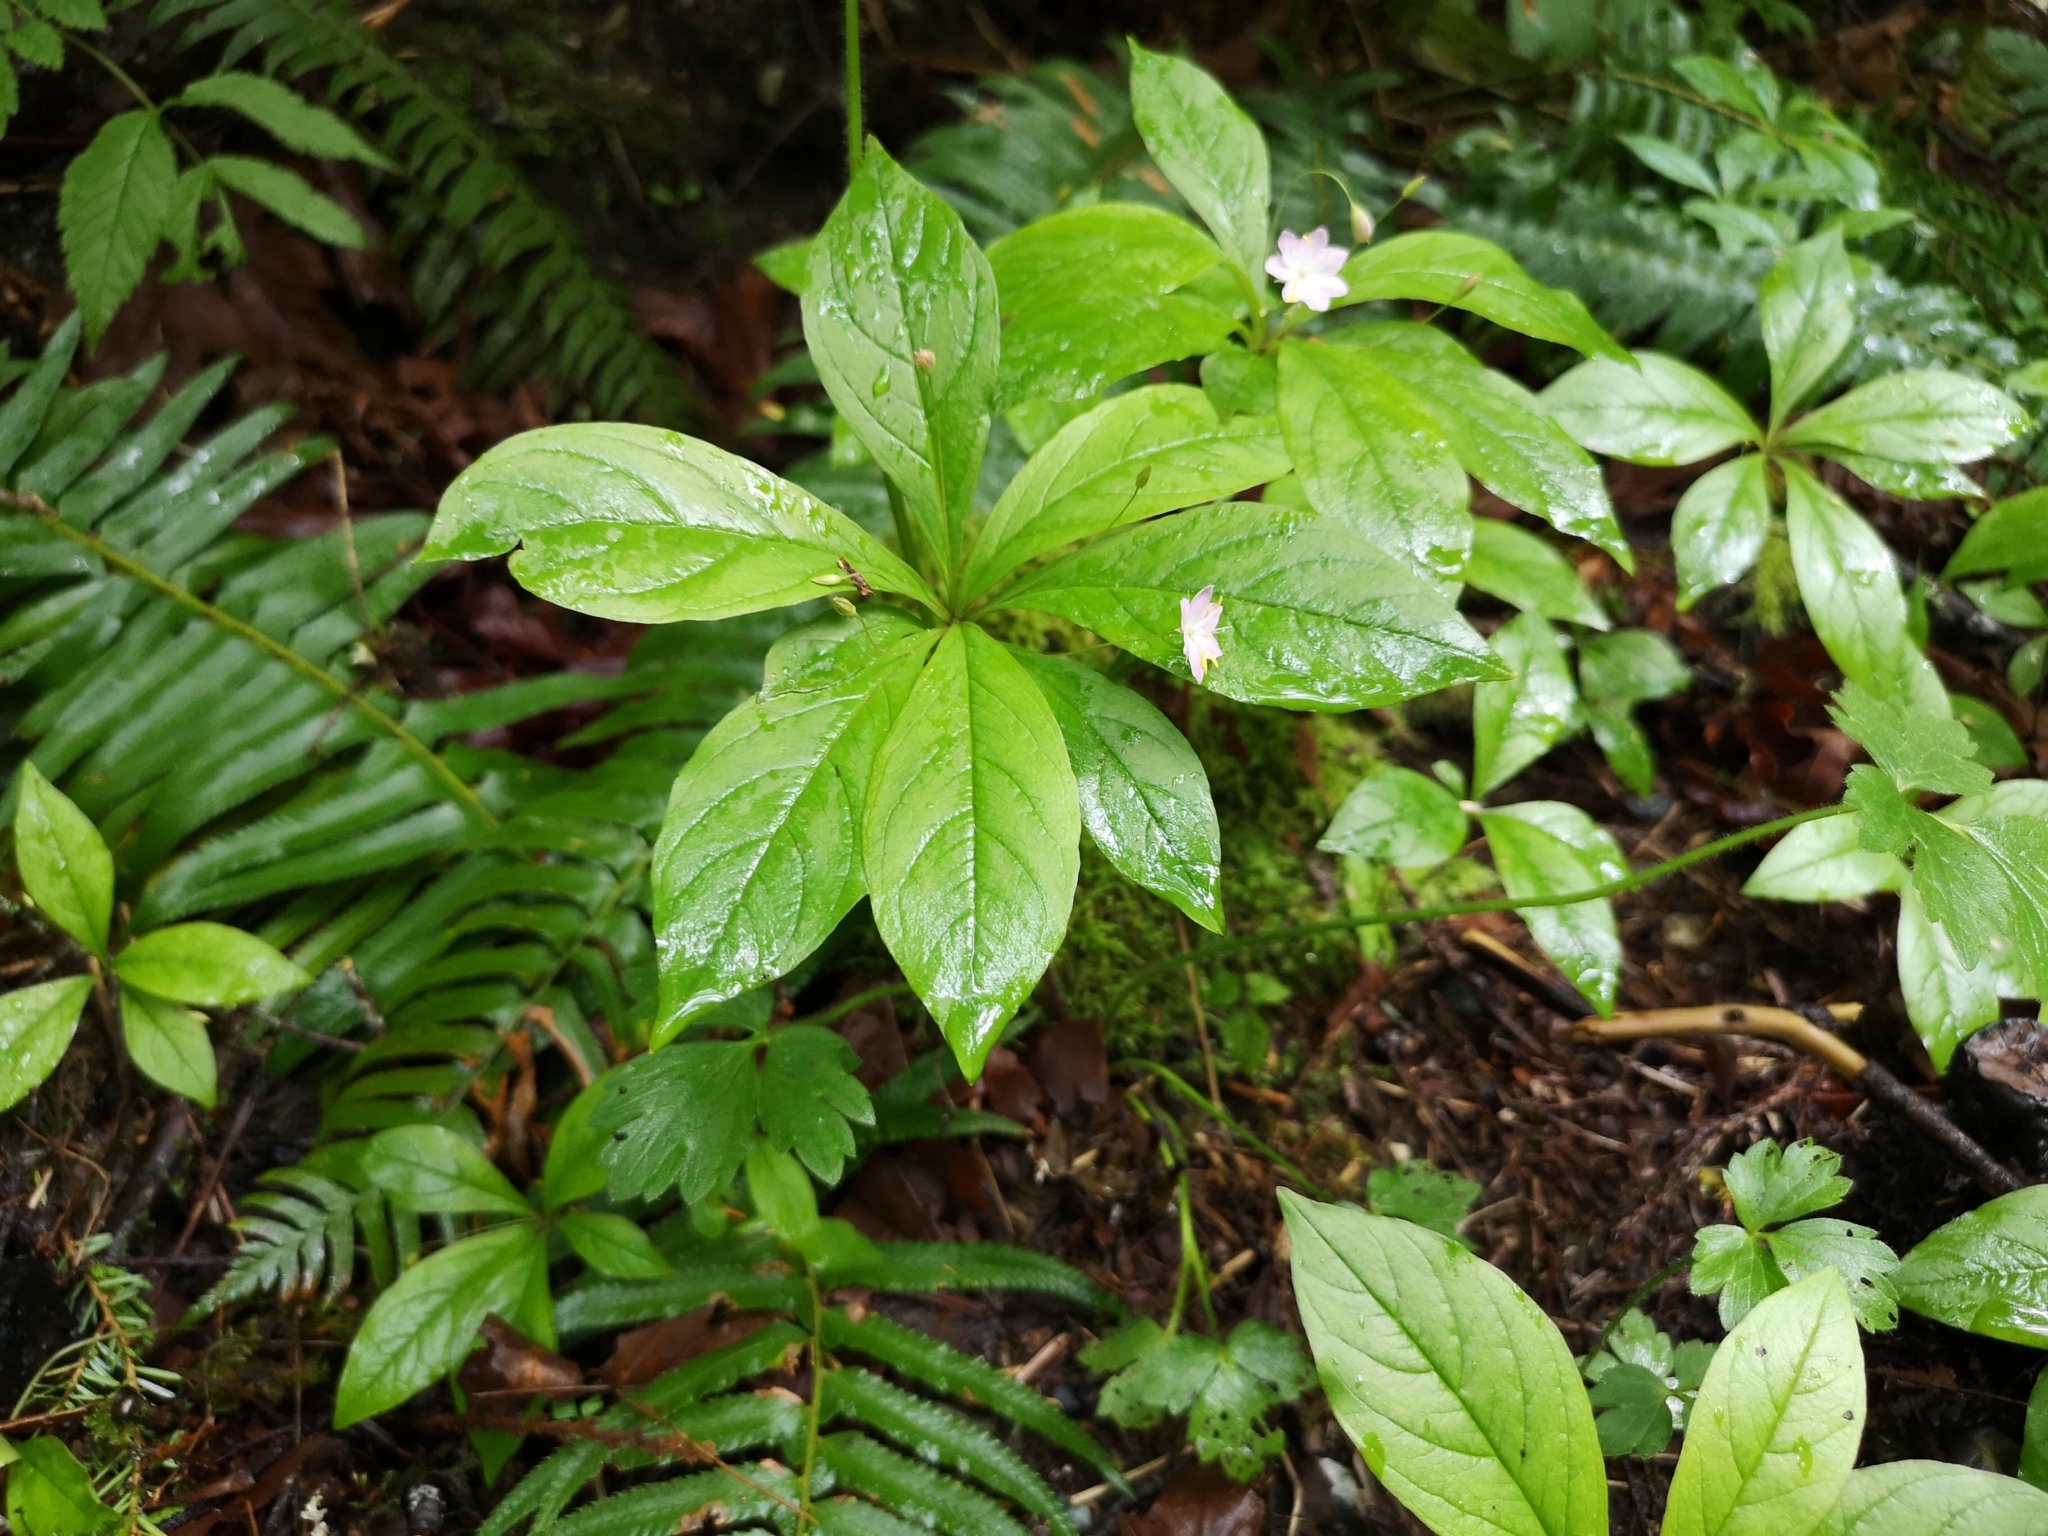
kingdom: Plantae
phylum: Tracheophyta
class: Magnoliopsida
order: Ericales
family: Primulaceae
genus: Lysimachia
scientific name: Lysimachia latifolia
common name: Pacific starflower
